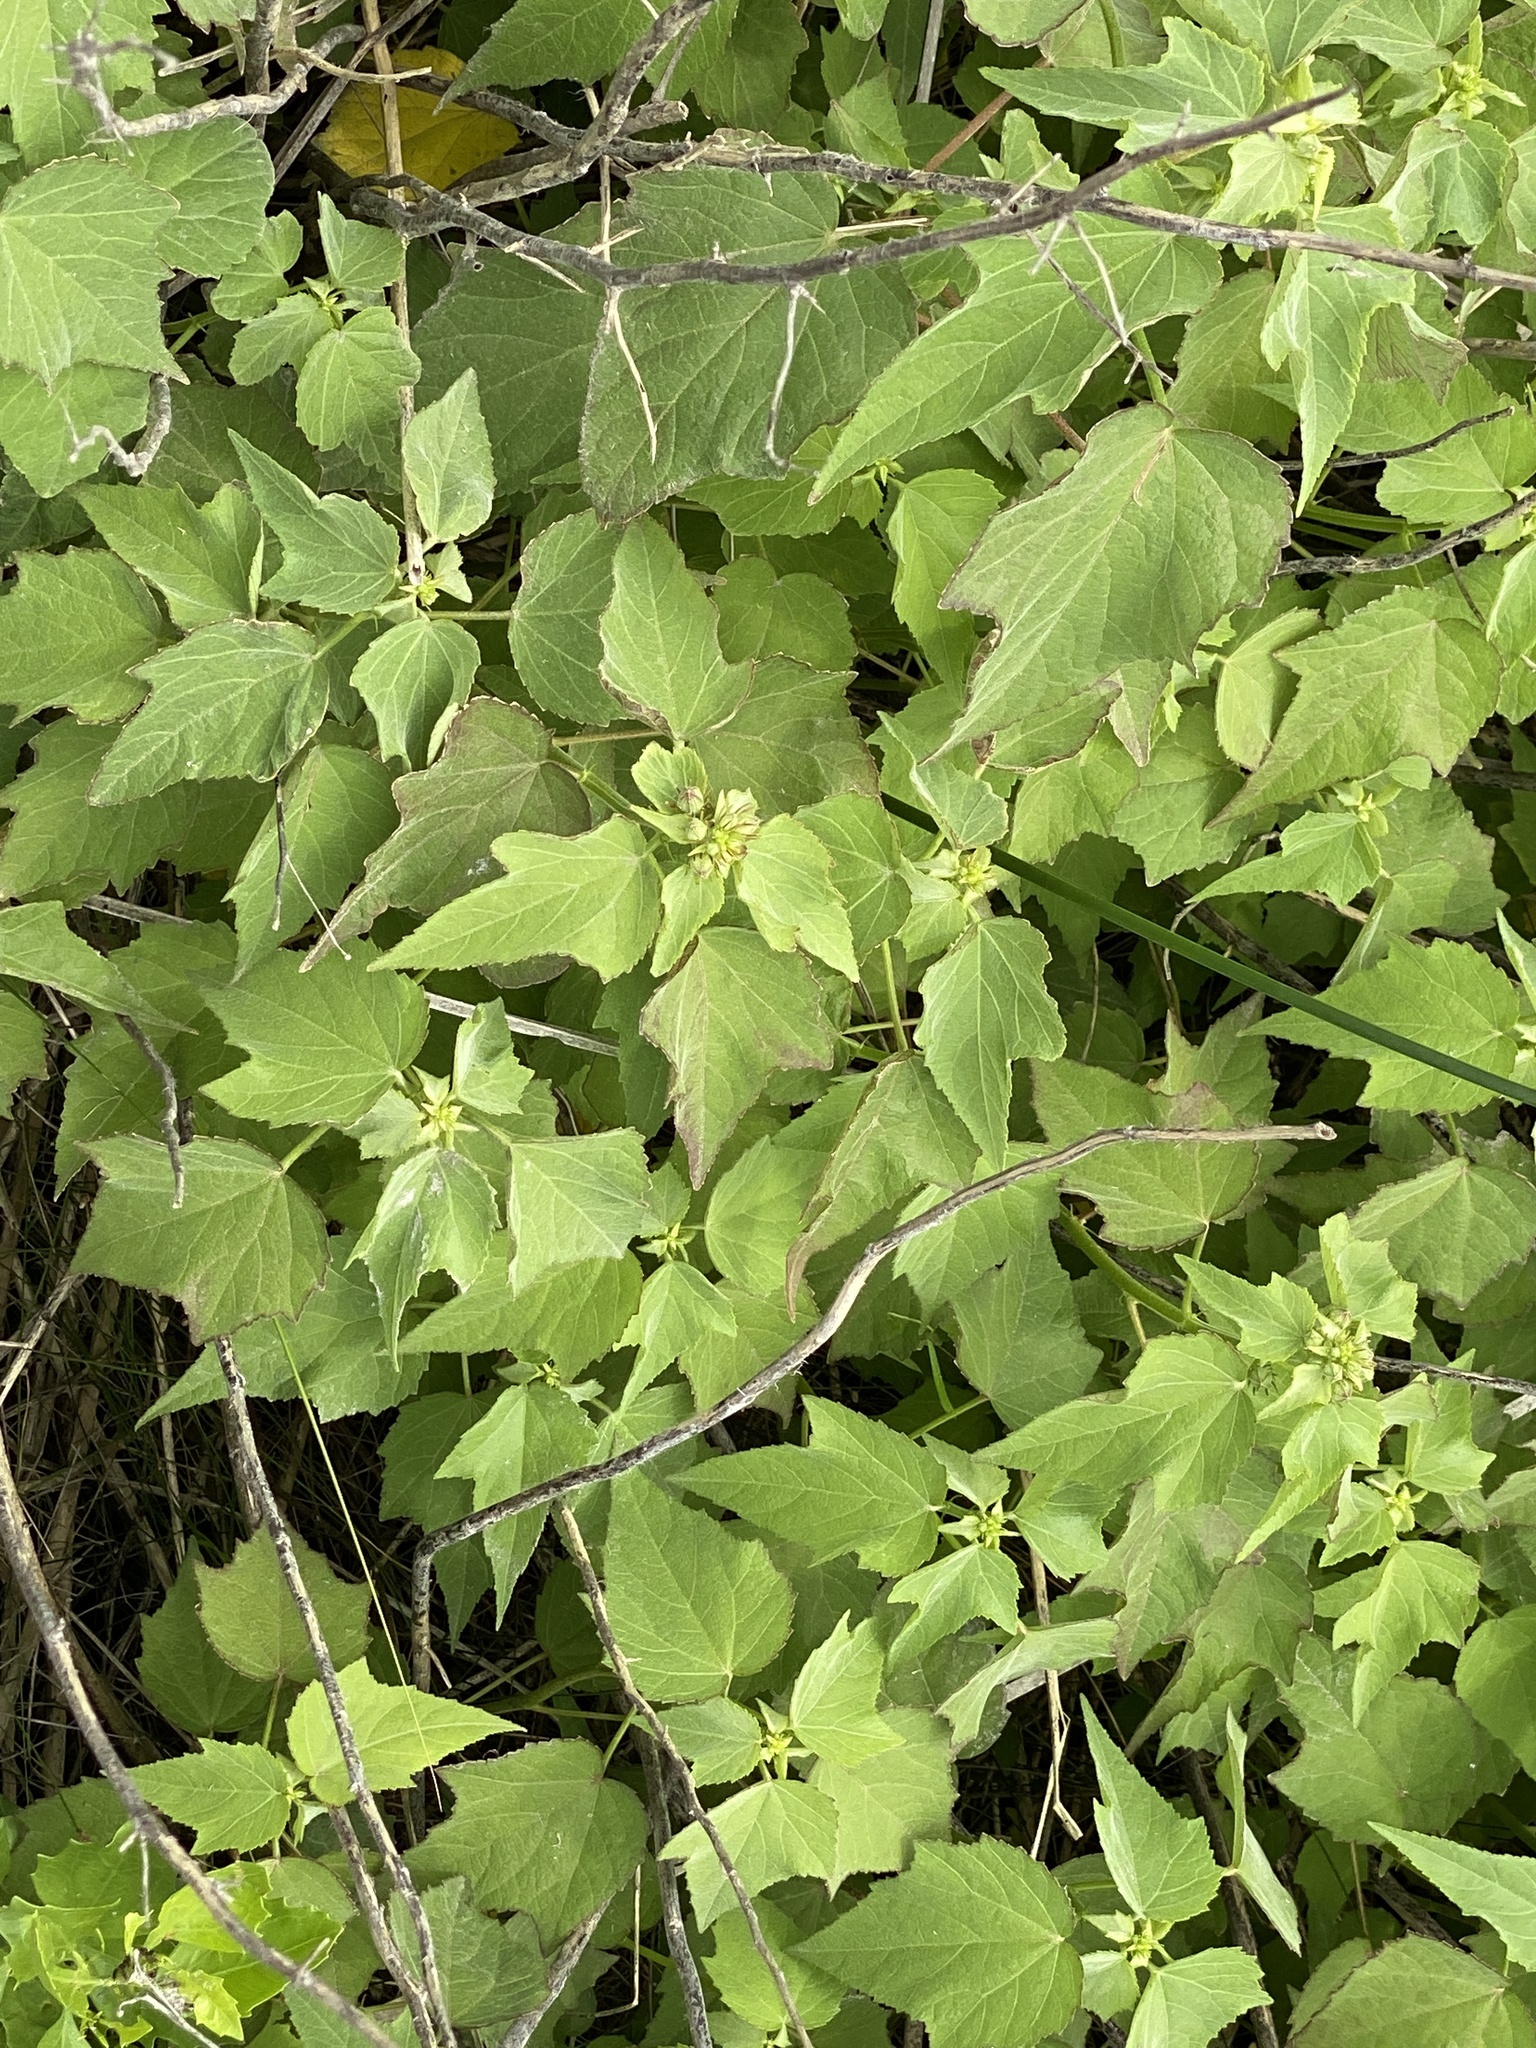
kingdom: Plantae
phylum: Tracheophyta
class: Magnoliopsida
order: Malvales
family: Malvaceae
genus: Kosteletzkya
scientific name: Kosteletzkya pentacarpos
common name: Virginia saltmarsh mallow
